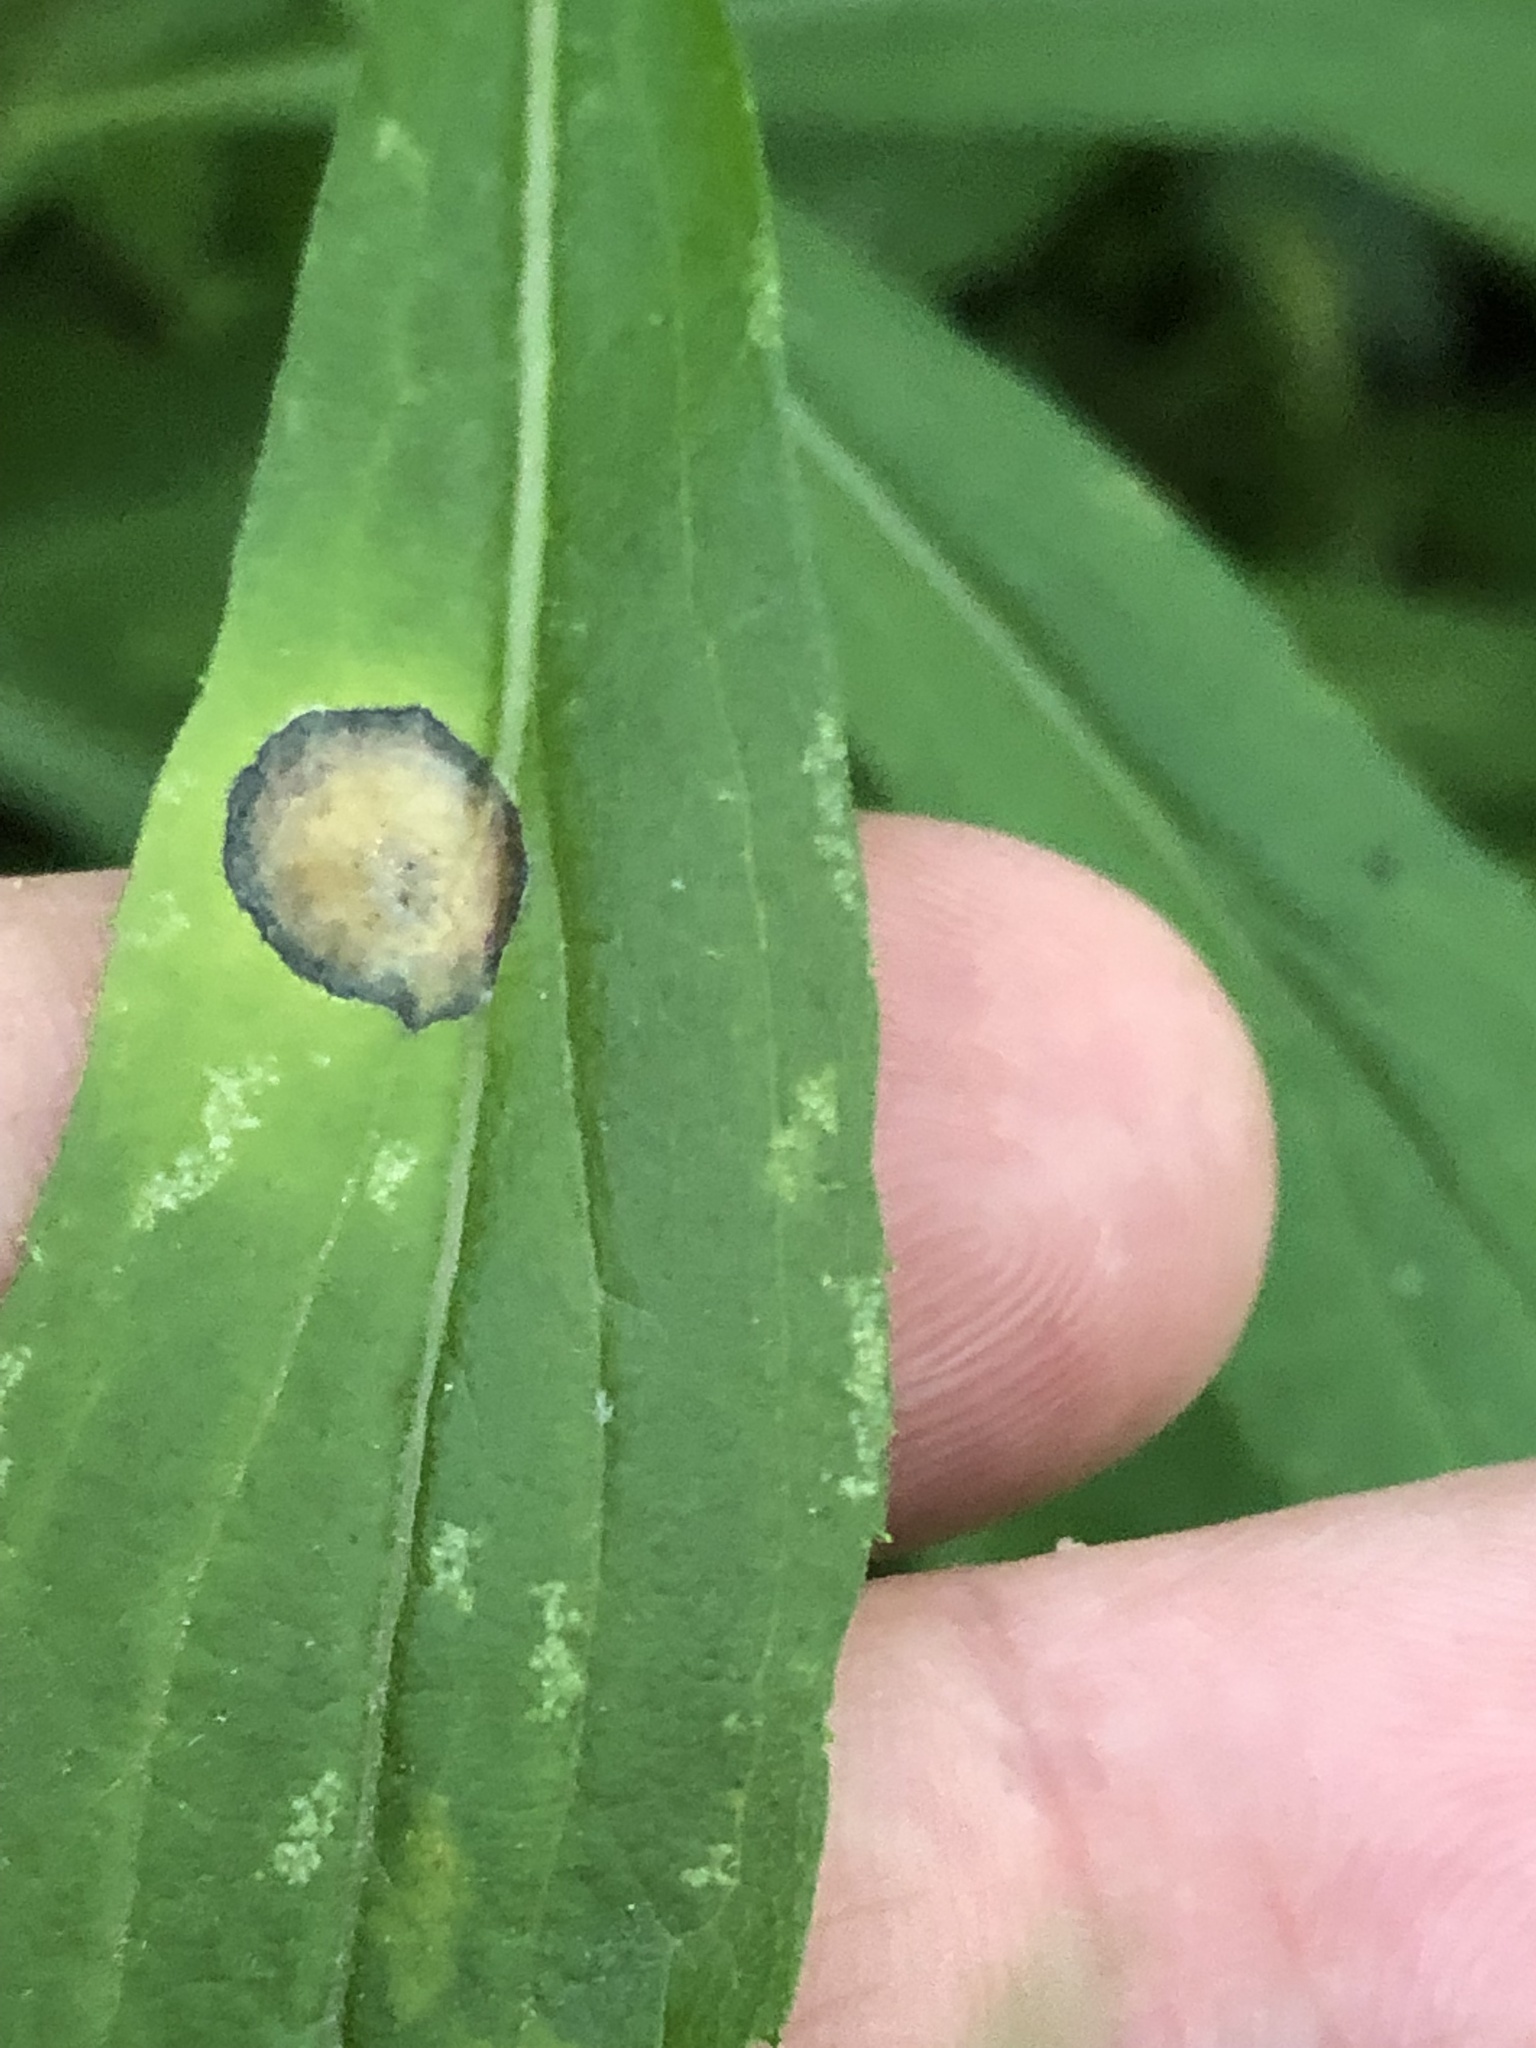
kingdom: Animalia
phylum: Arthropoda
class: Insecta
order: Diptera
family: Cecidomyiidae
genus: Asteromyia
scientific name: Asteromyia carbonifera
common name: Carbonifera goldenrod gall midge
